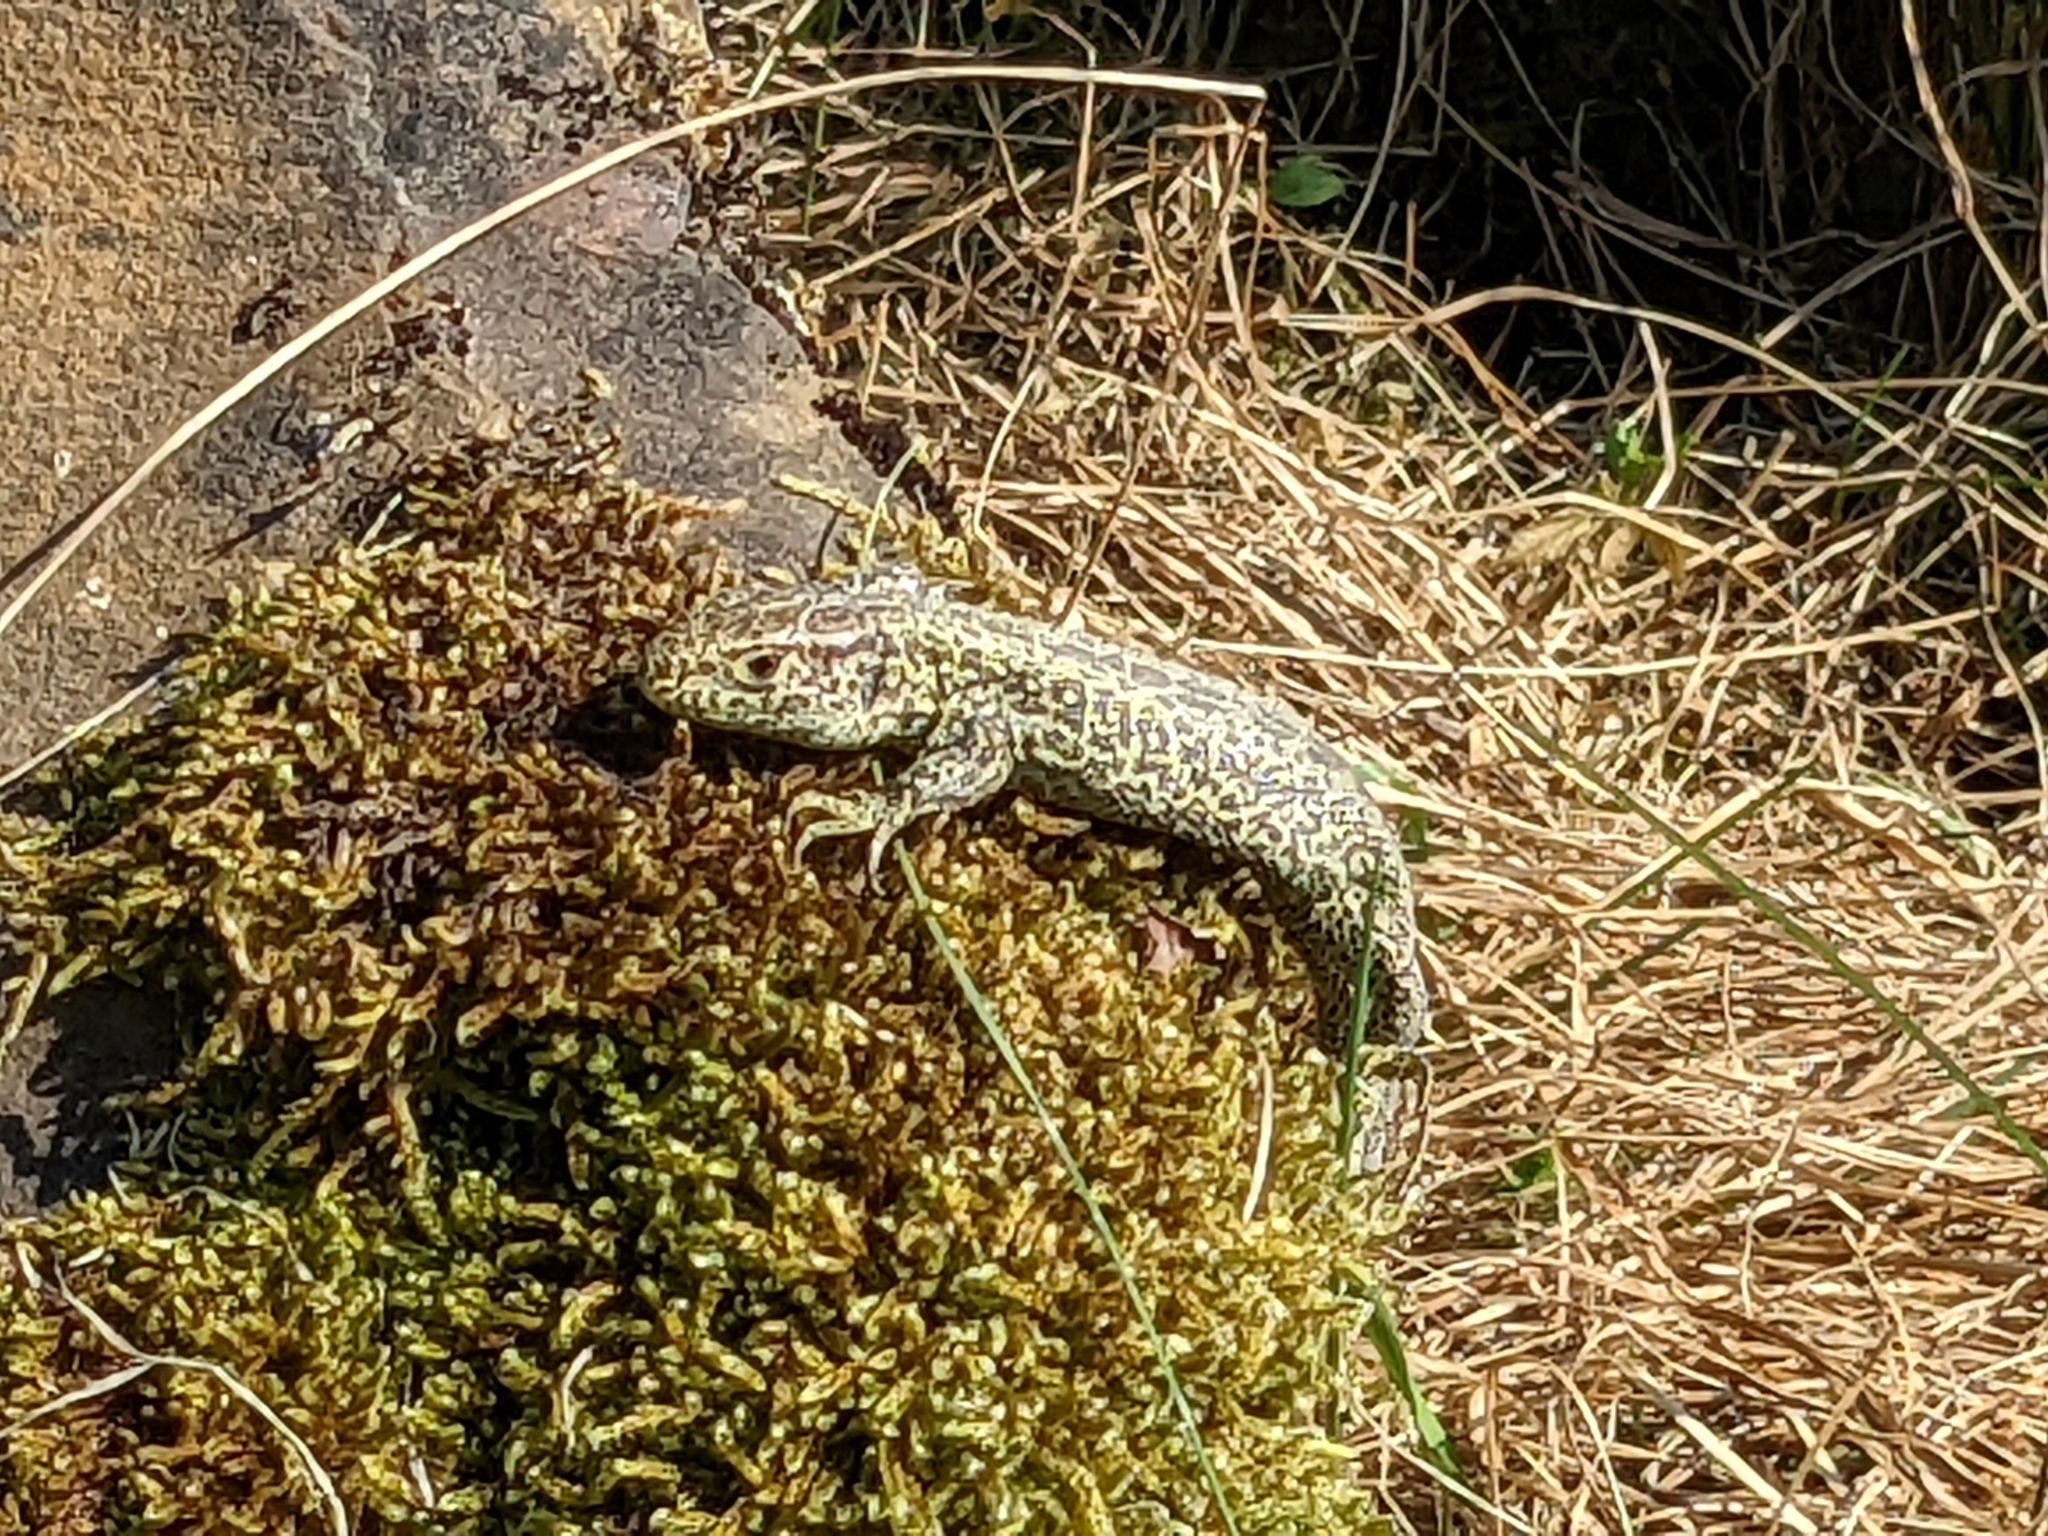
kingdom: Animalia
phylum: Chordata
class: Squamata
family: Lacertidae
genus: Lacerta
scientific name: Lacerta agilis
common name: Sand lizard
